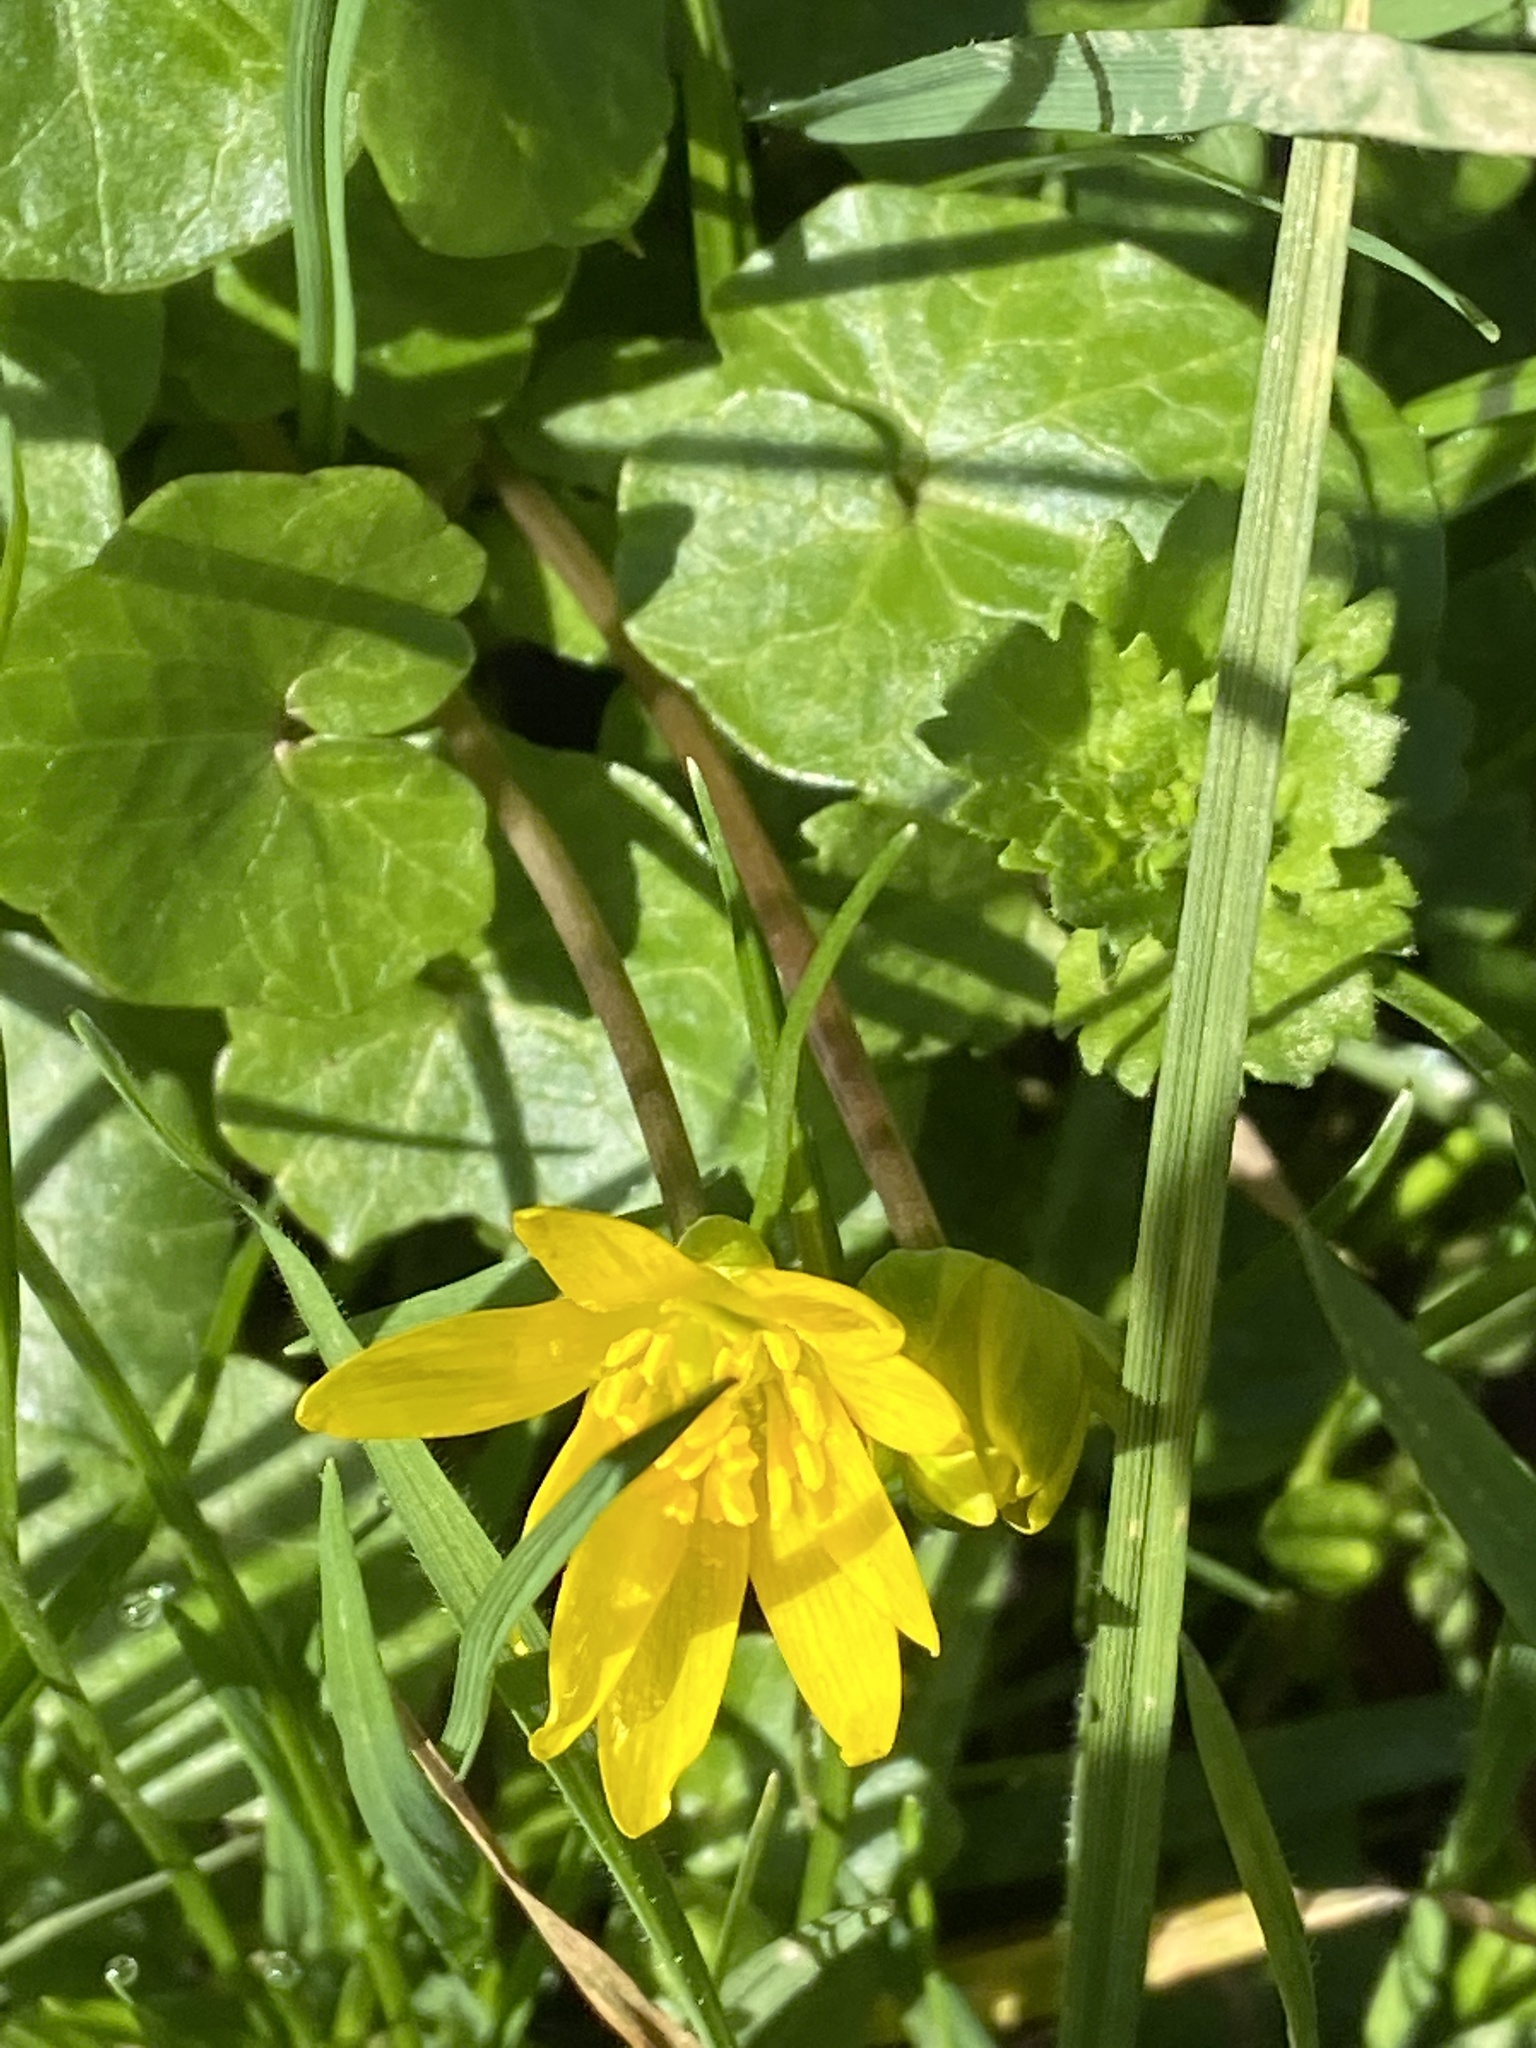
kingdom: Plantae
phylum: Tracheophyta
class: Magnoliopsida
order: Ranunculales
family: Ranunculaceae
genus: Ficaria
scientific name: Ficaria verna
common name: Lesser celandine
